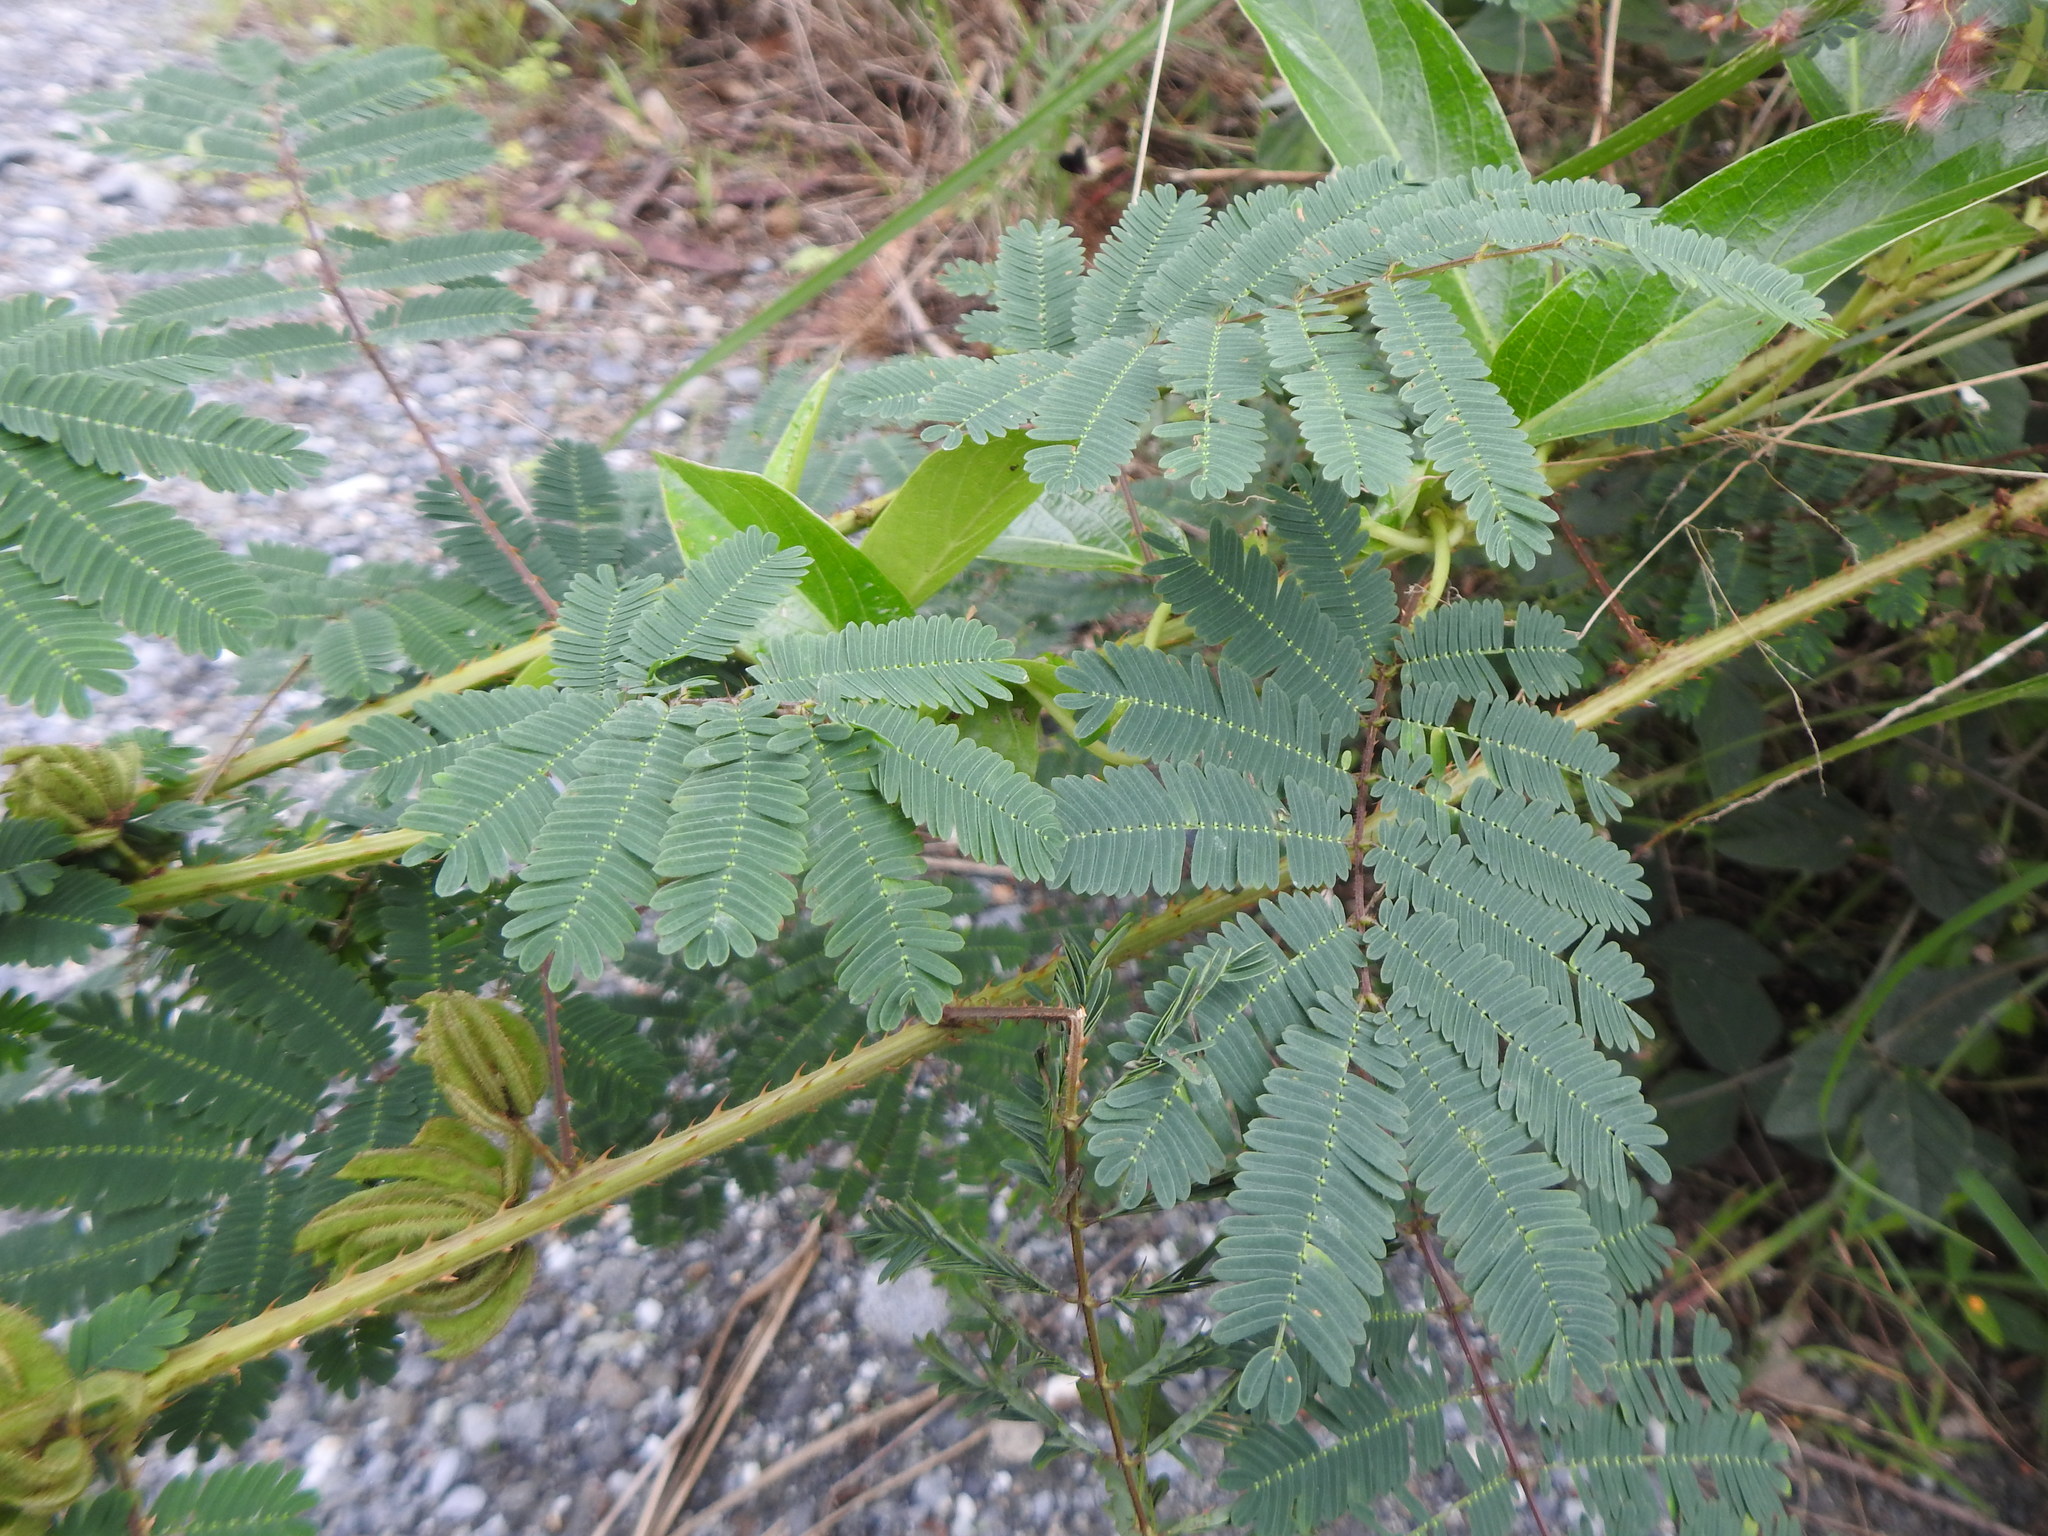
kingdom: Plantae
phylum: Tracheophyta
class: Magnoliopsida
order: Fabales
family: Fabaceae
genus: Mimosa
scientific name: Mimosa diplotricha
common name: Giant sensitive-plant
